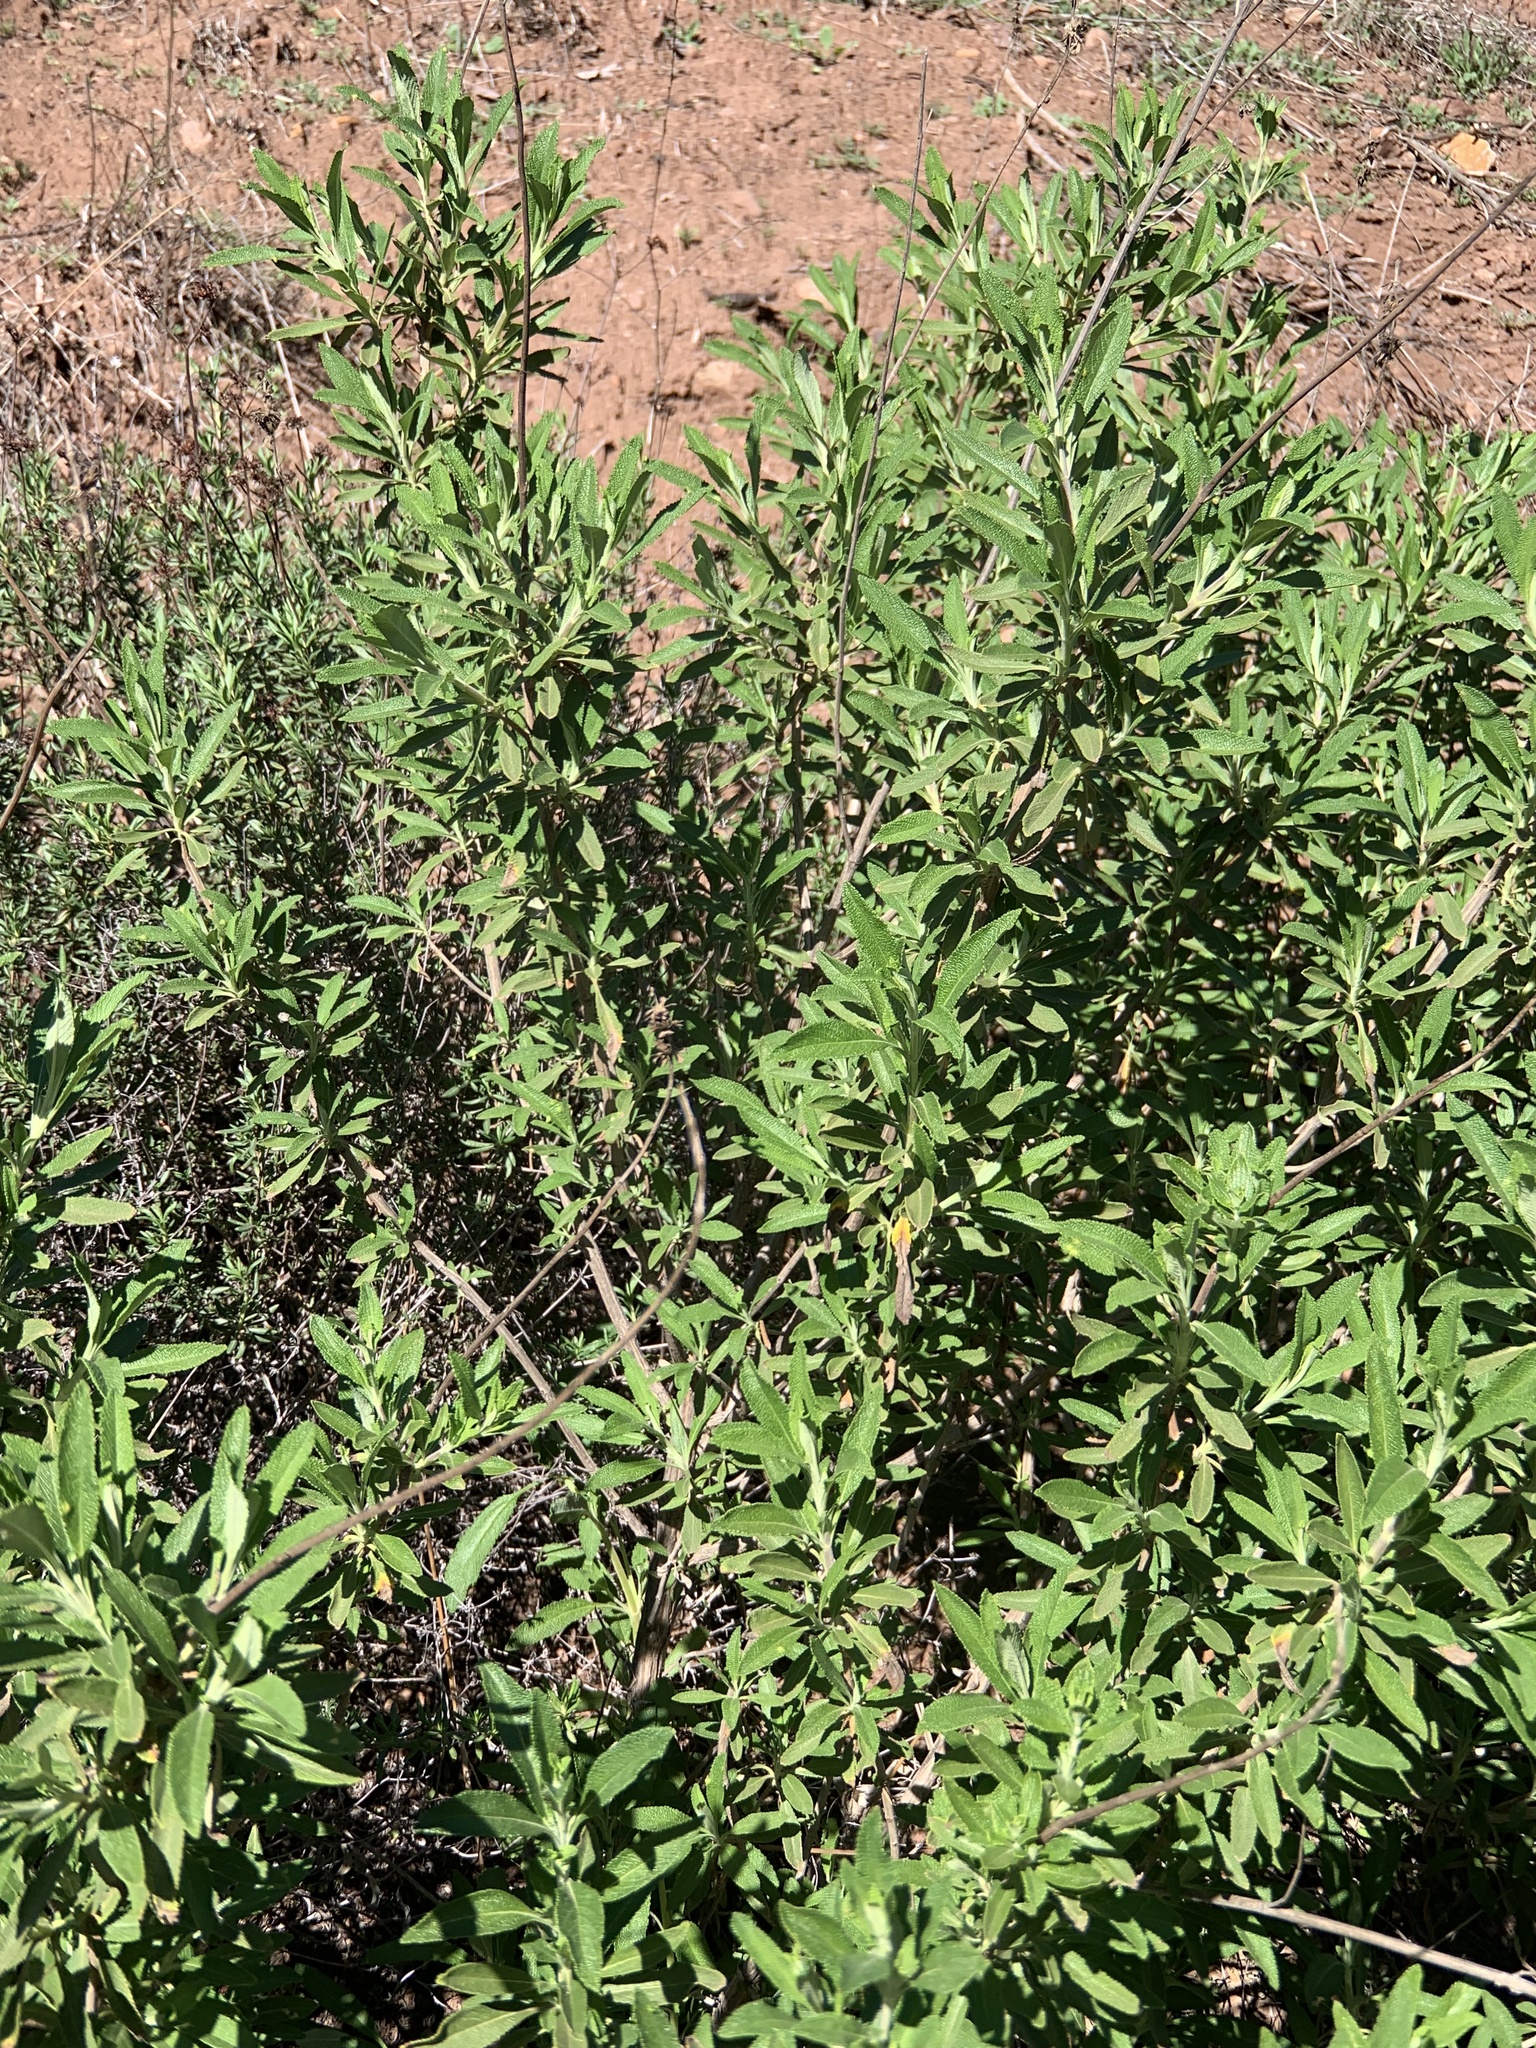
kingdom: Plantae
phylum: Tracheophyta
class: Magnoliopsida
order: Lamiales
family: Lamiaceae
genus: Salvia
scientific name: Salvia mellifera
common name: Black sage
